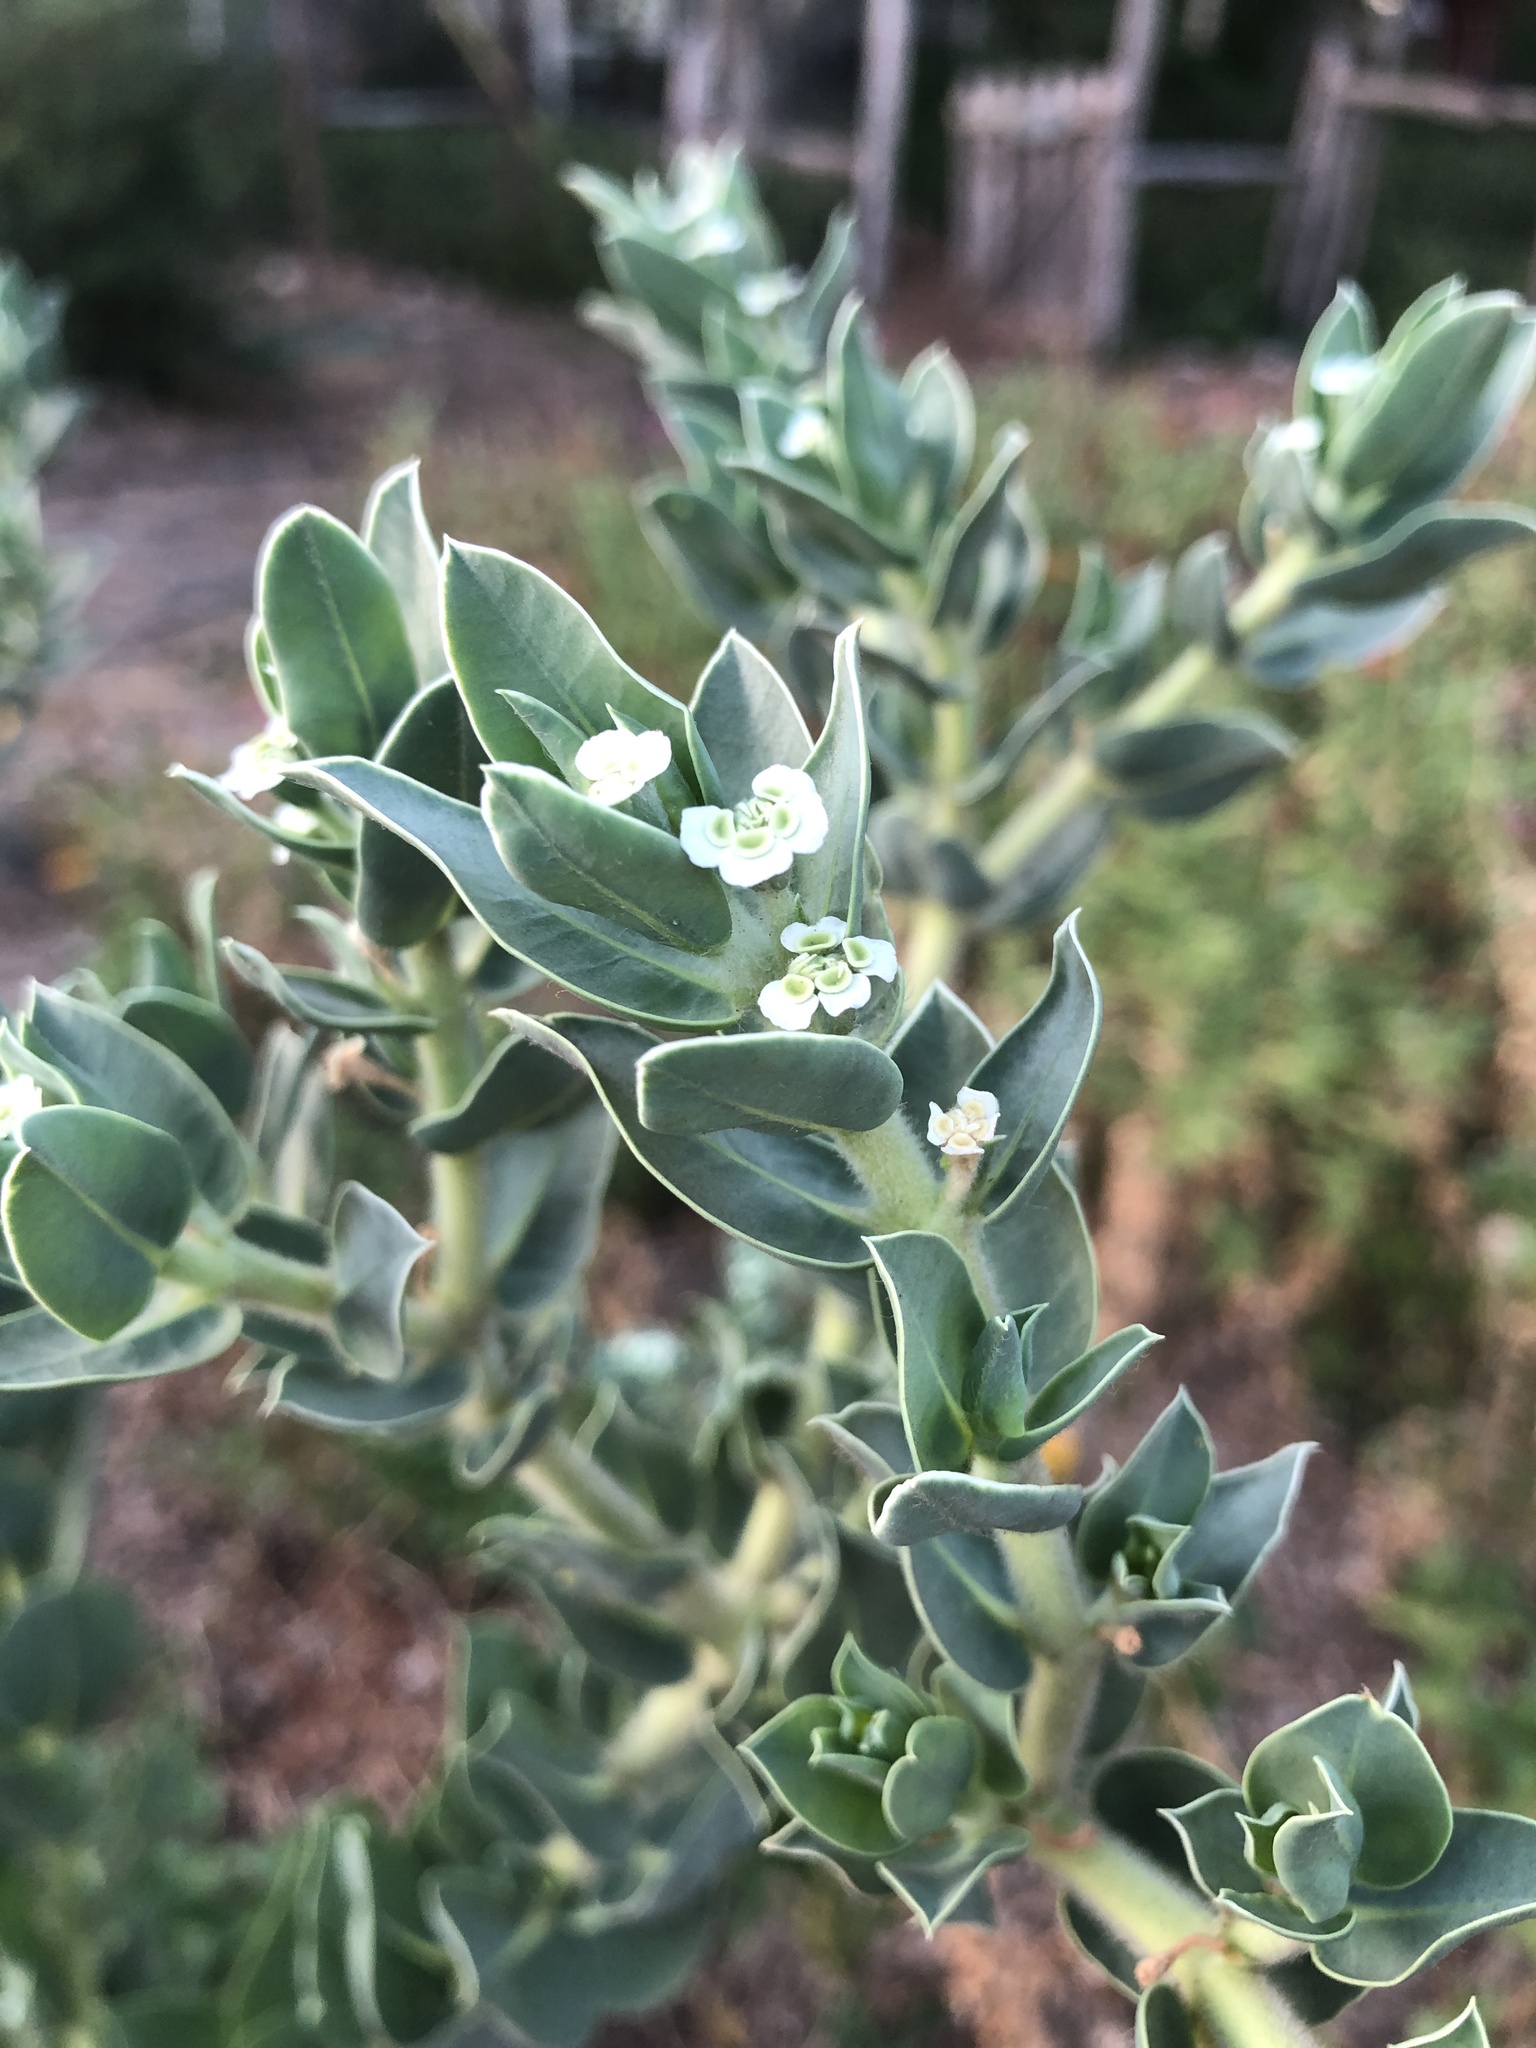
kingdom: Plantae
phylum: Tracheophyta
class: Magnoliopsida
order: Malpighiales
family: Euphorbiaceae
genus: Euphorbia
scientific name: Euphorbia marginata
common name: Ghostweed
